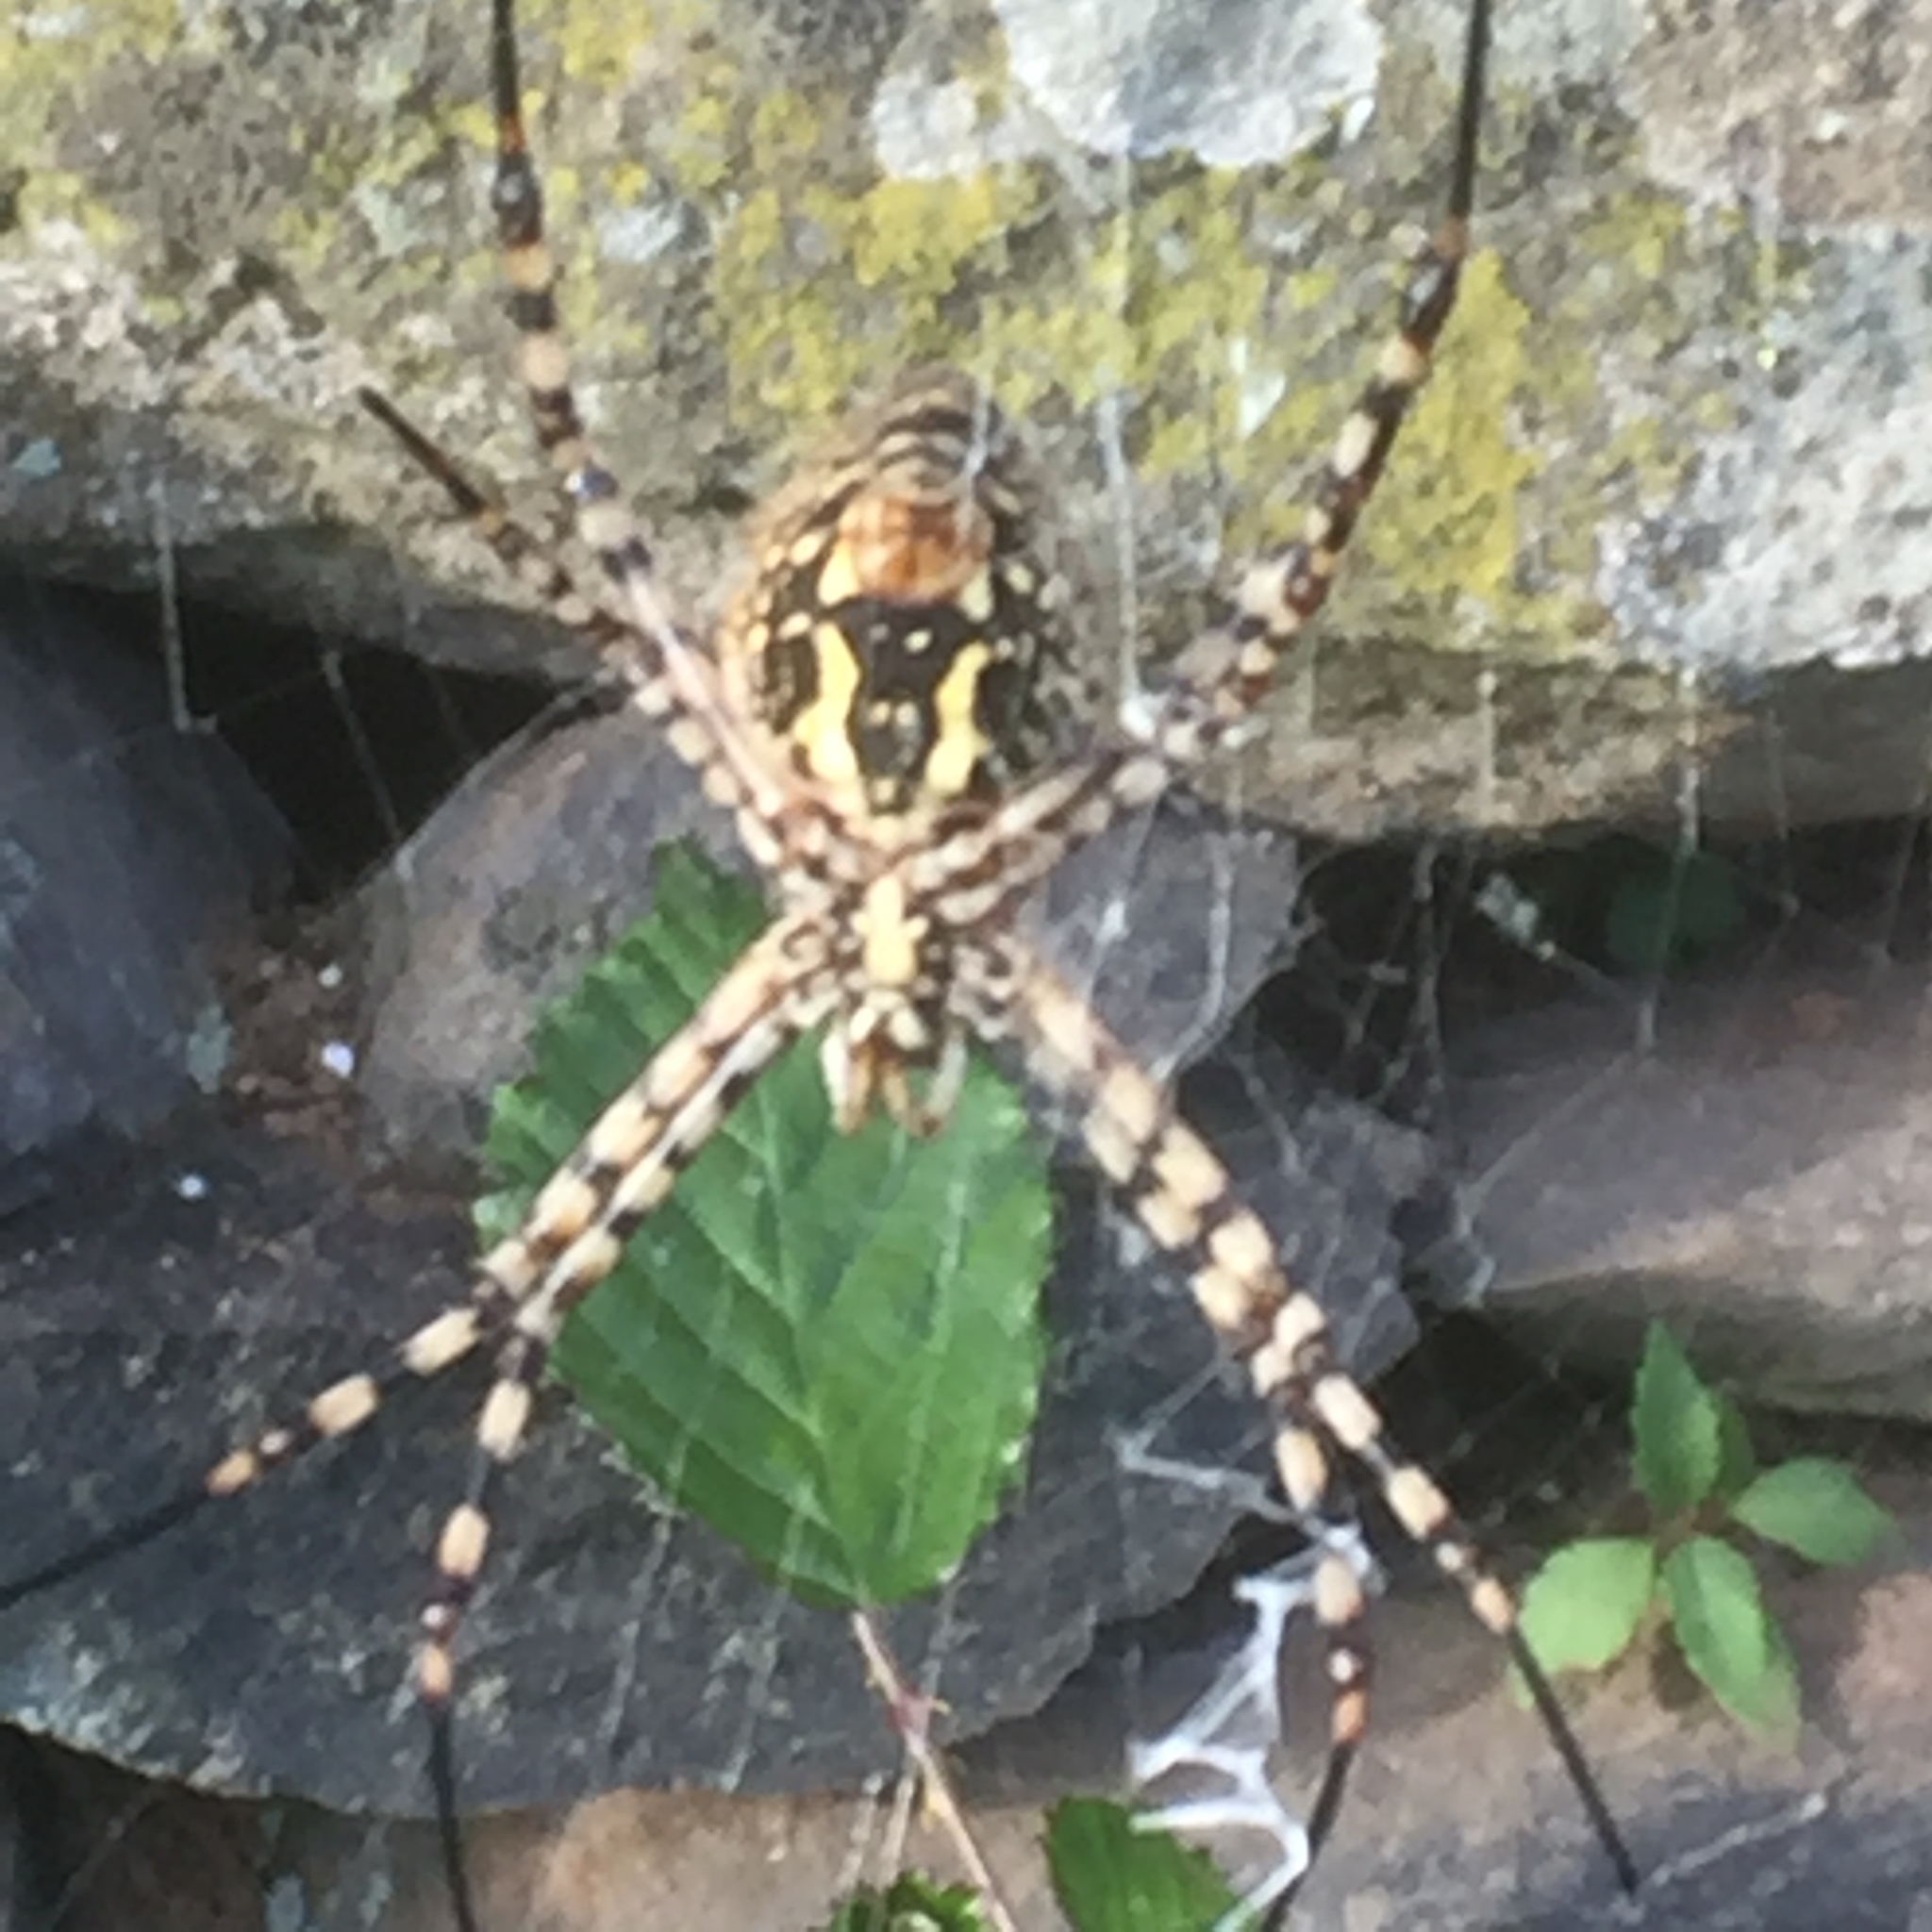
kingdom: Animalia
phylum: Arthropoda
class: Arachnida
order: Araneae
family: Araneidae
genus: Argiope
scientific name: Argiope trifasciata
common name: Banded garden spider
